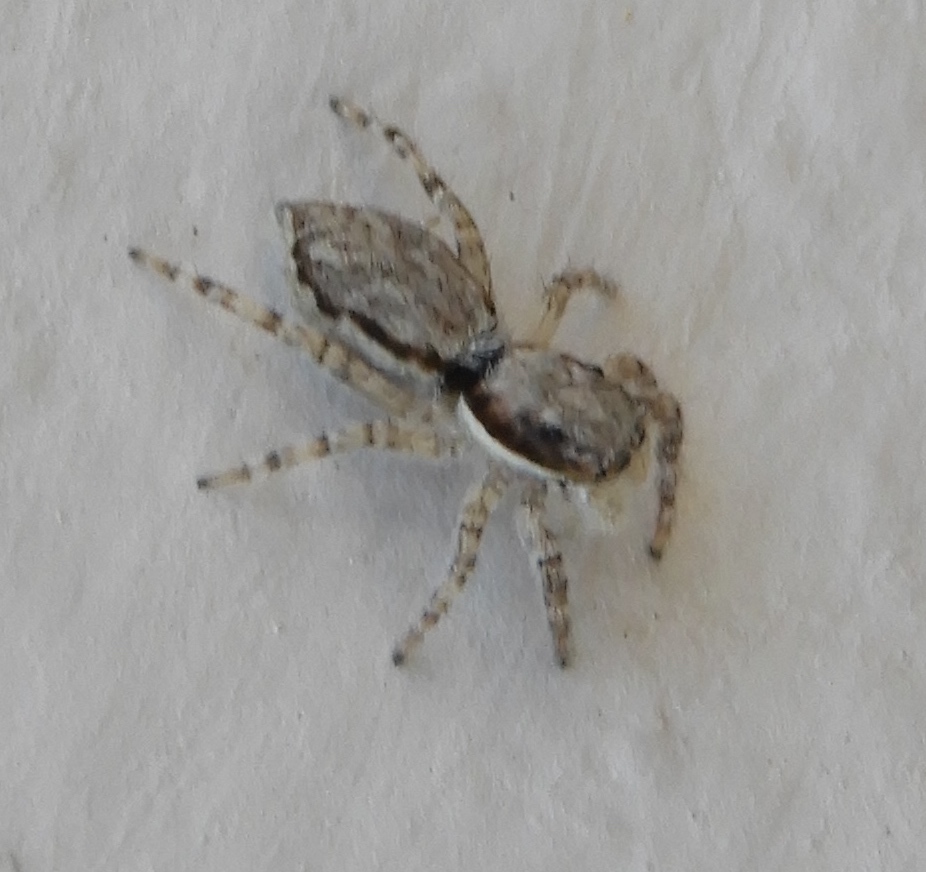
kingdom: Animalia
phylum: Arthropoda
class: Arachnida
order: Araneae
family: Salticidae
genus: Menemerus
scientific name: Menemerus bivittatus
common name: Gray wall jumper
